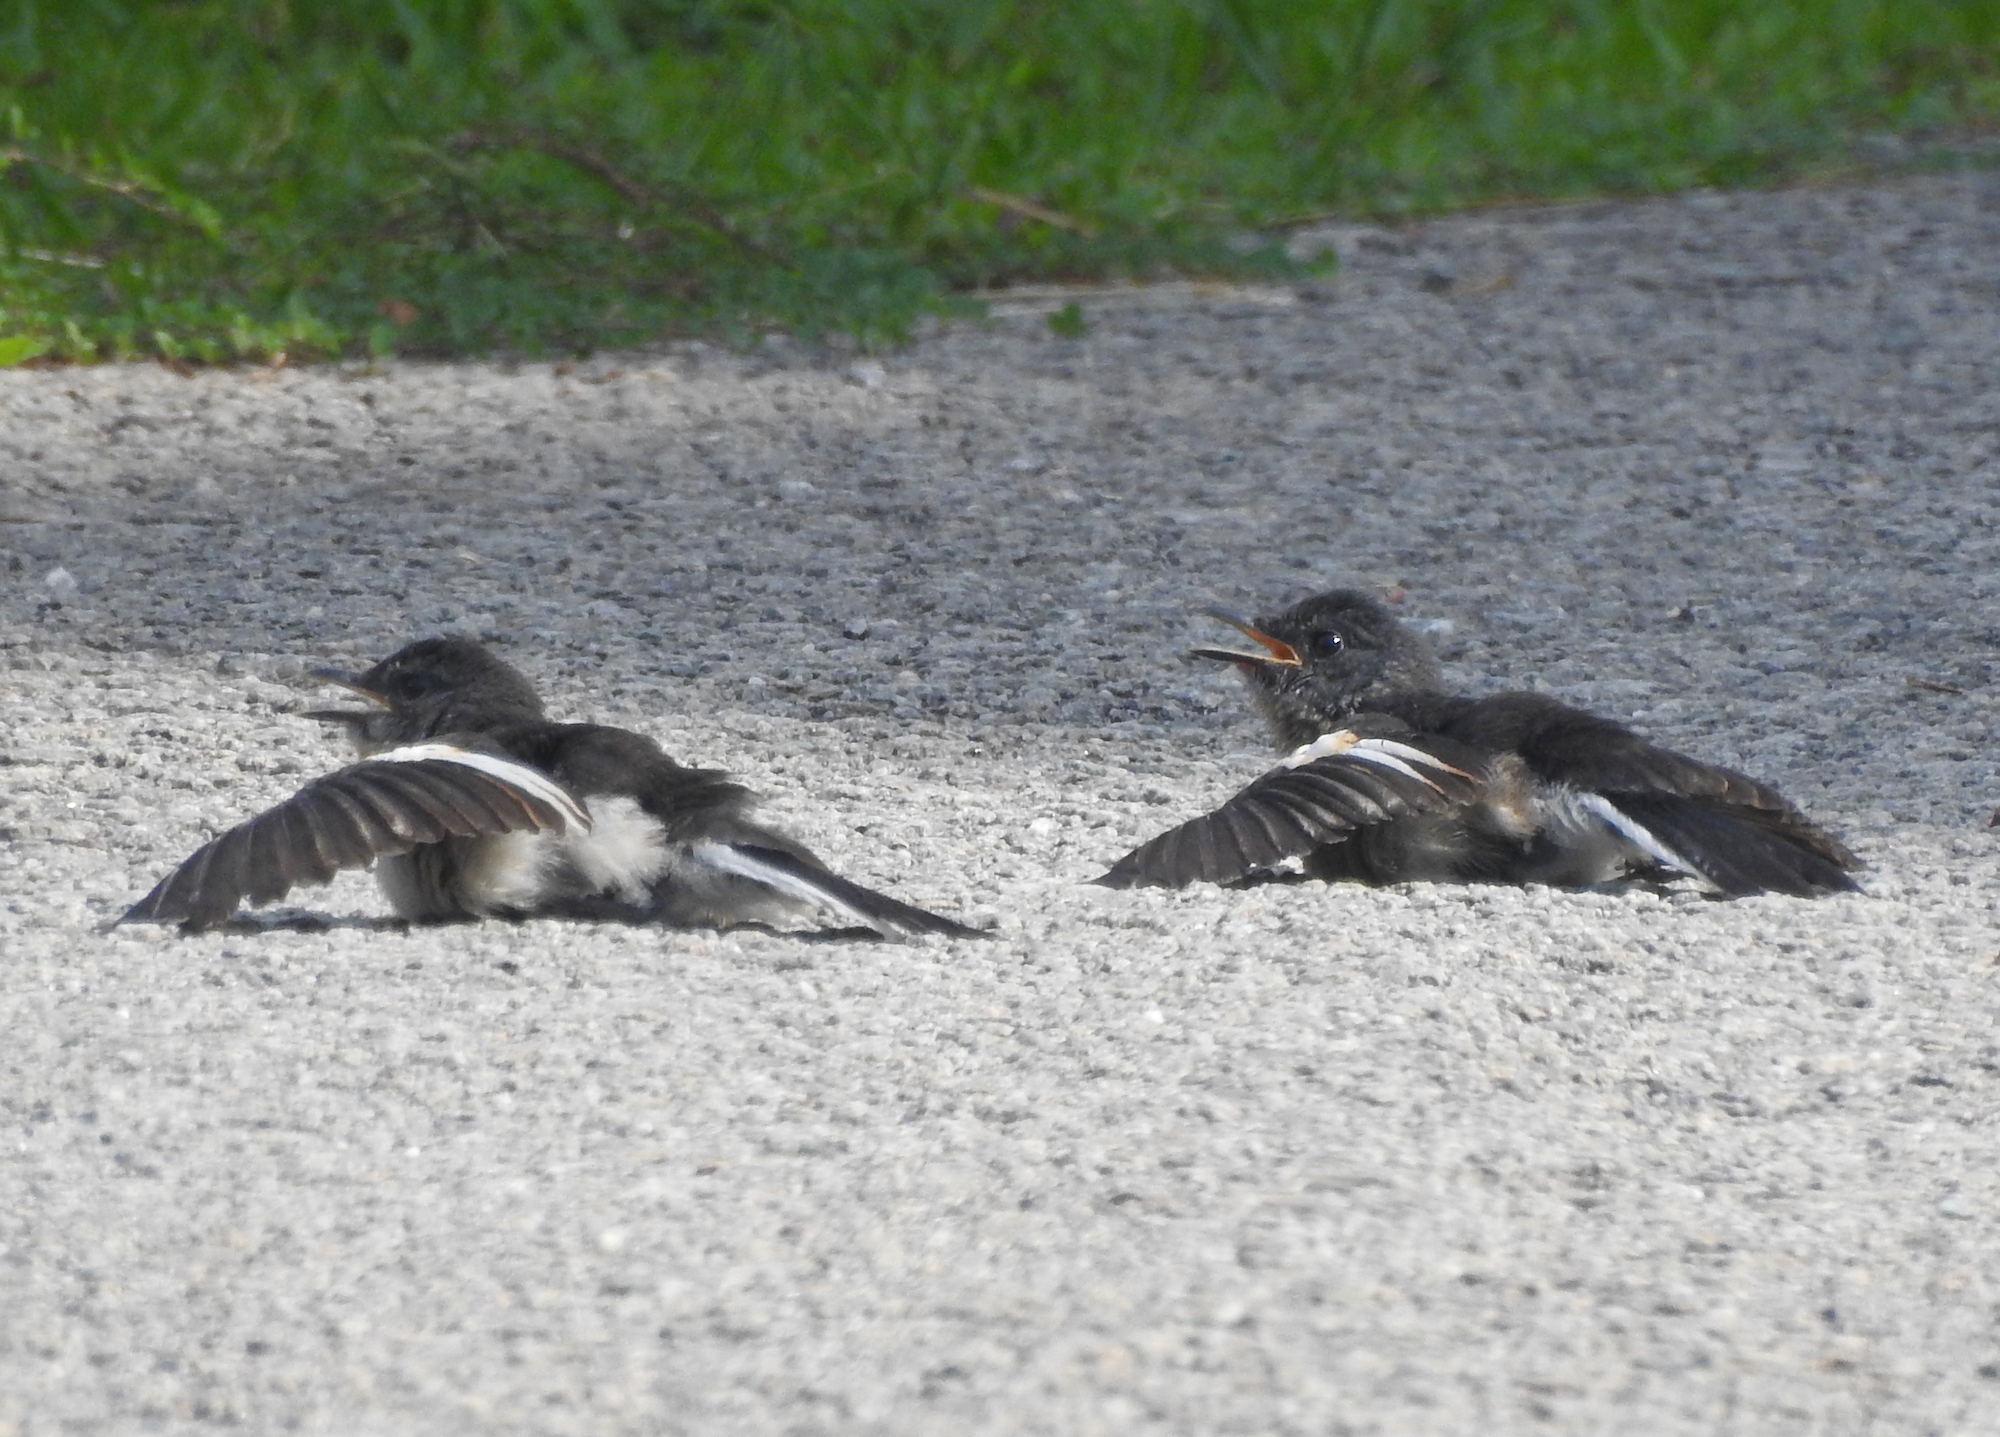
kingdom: Animalia
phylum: Chordata
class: Aves
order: Passeriformes
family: Muscicapidae
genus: Copsychus
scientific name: Copsychus saularis
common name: Oriental magpie-robin
